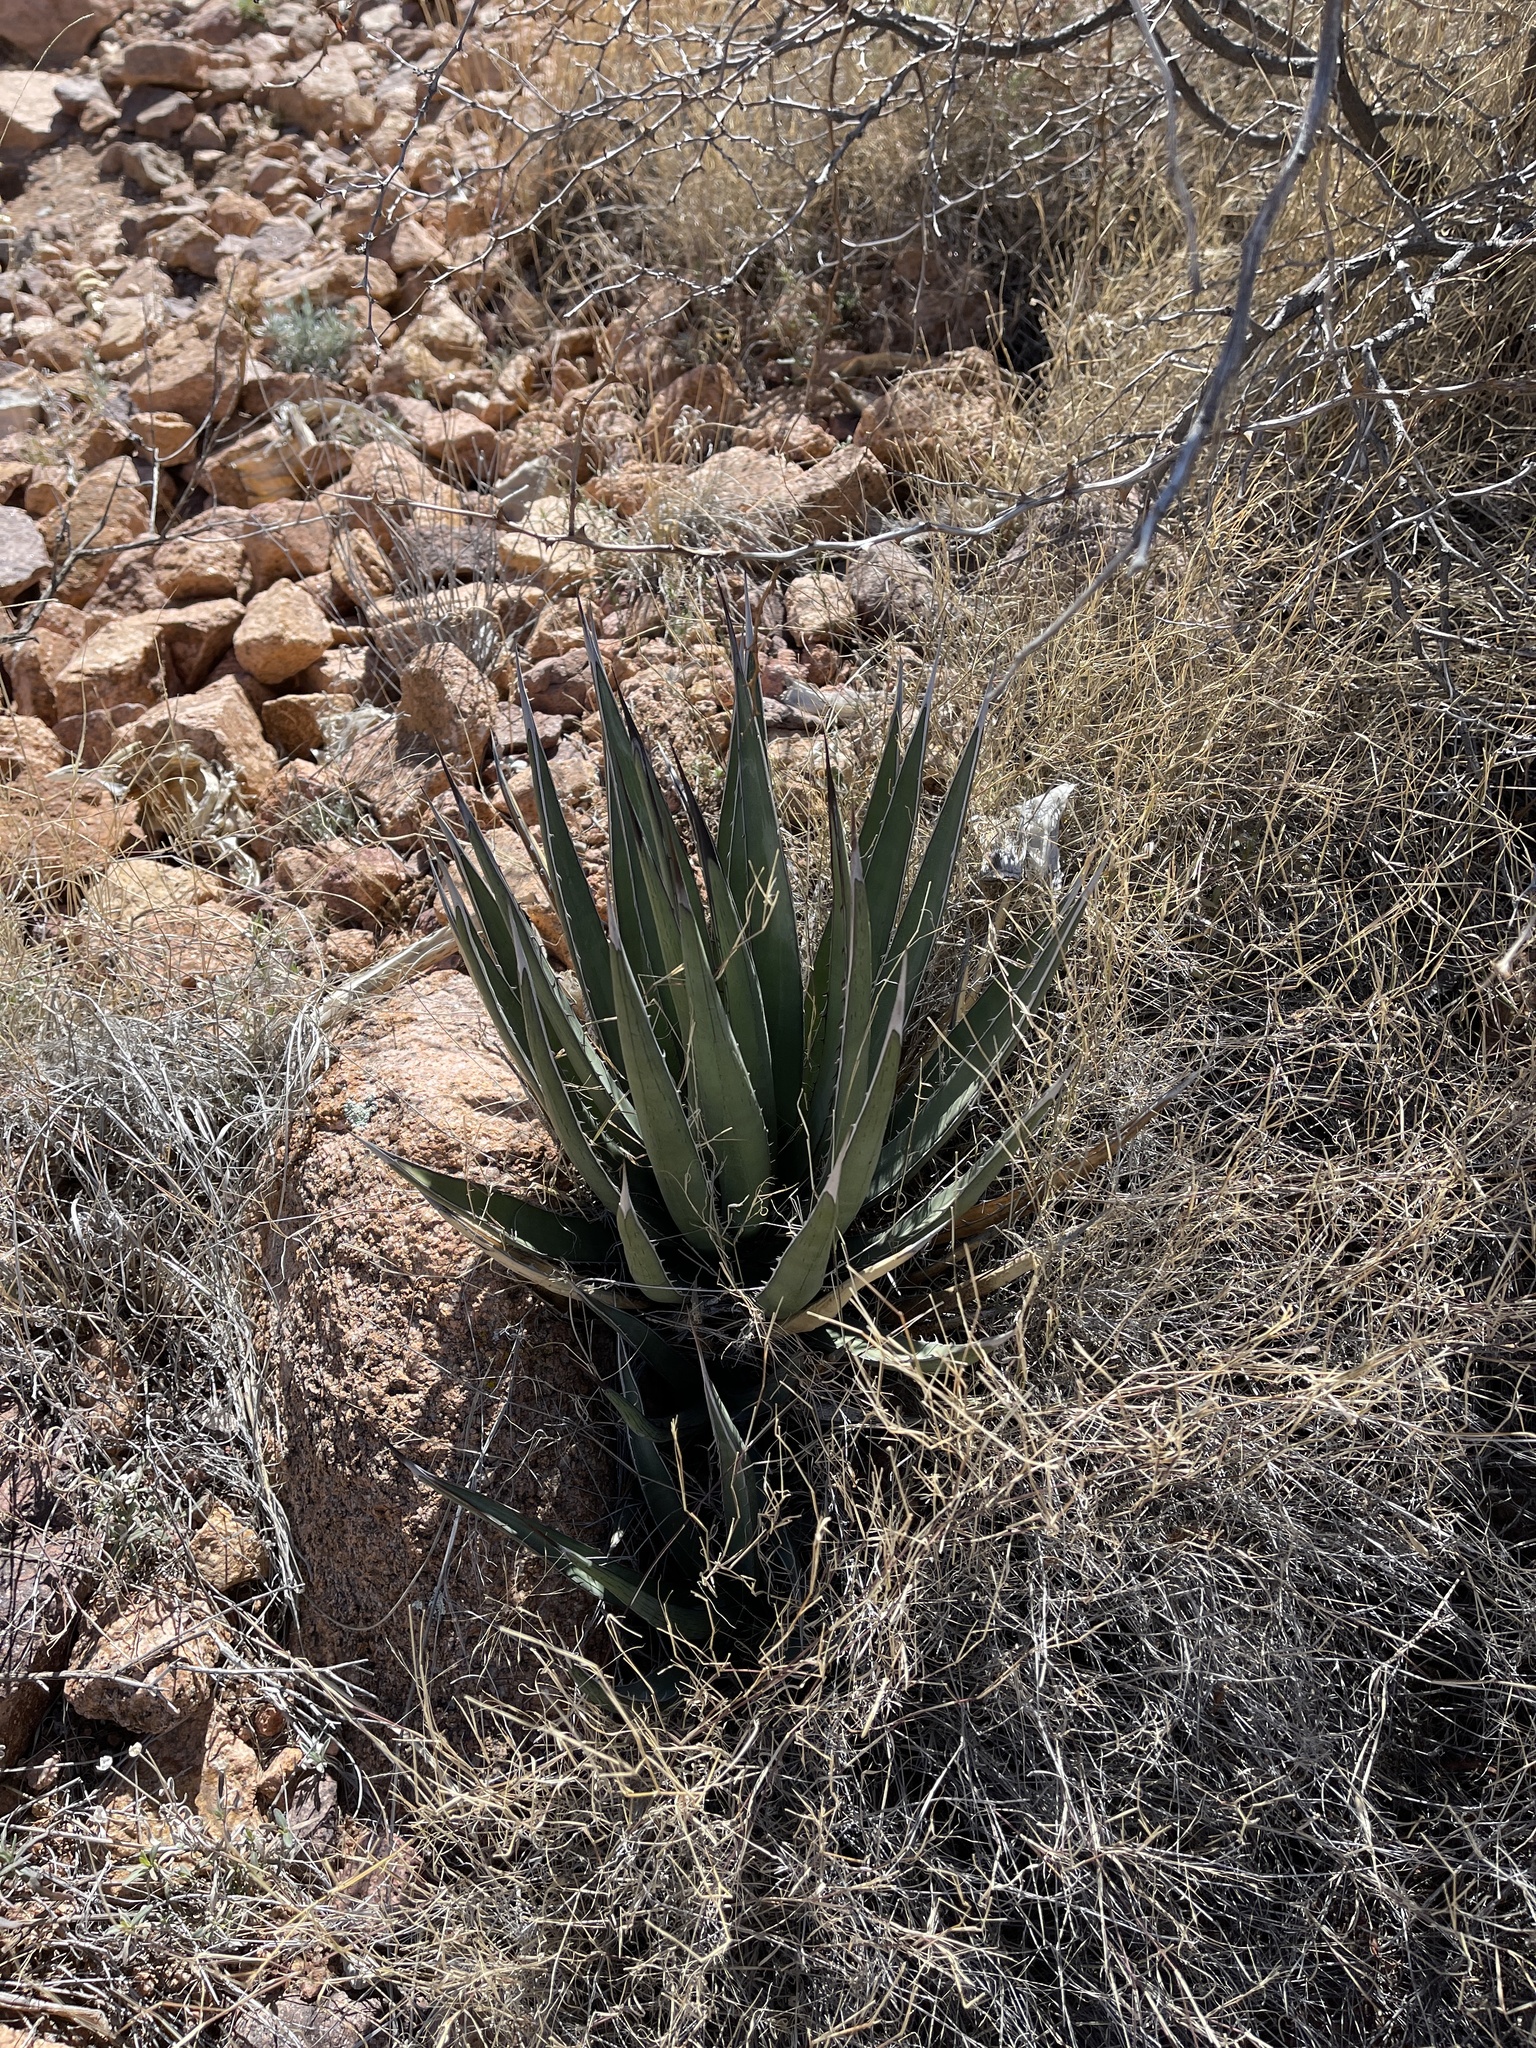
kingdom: Plantae
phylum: Tracheophyta
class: Liliopsida
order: Asparagales
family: Asparagaceae
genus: Agave
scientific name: Agave lechuguilla
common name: Lecheguilla agave
